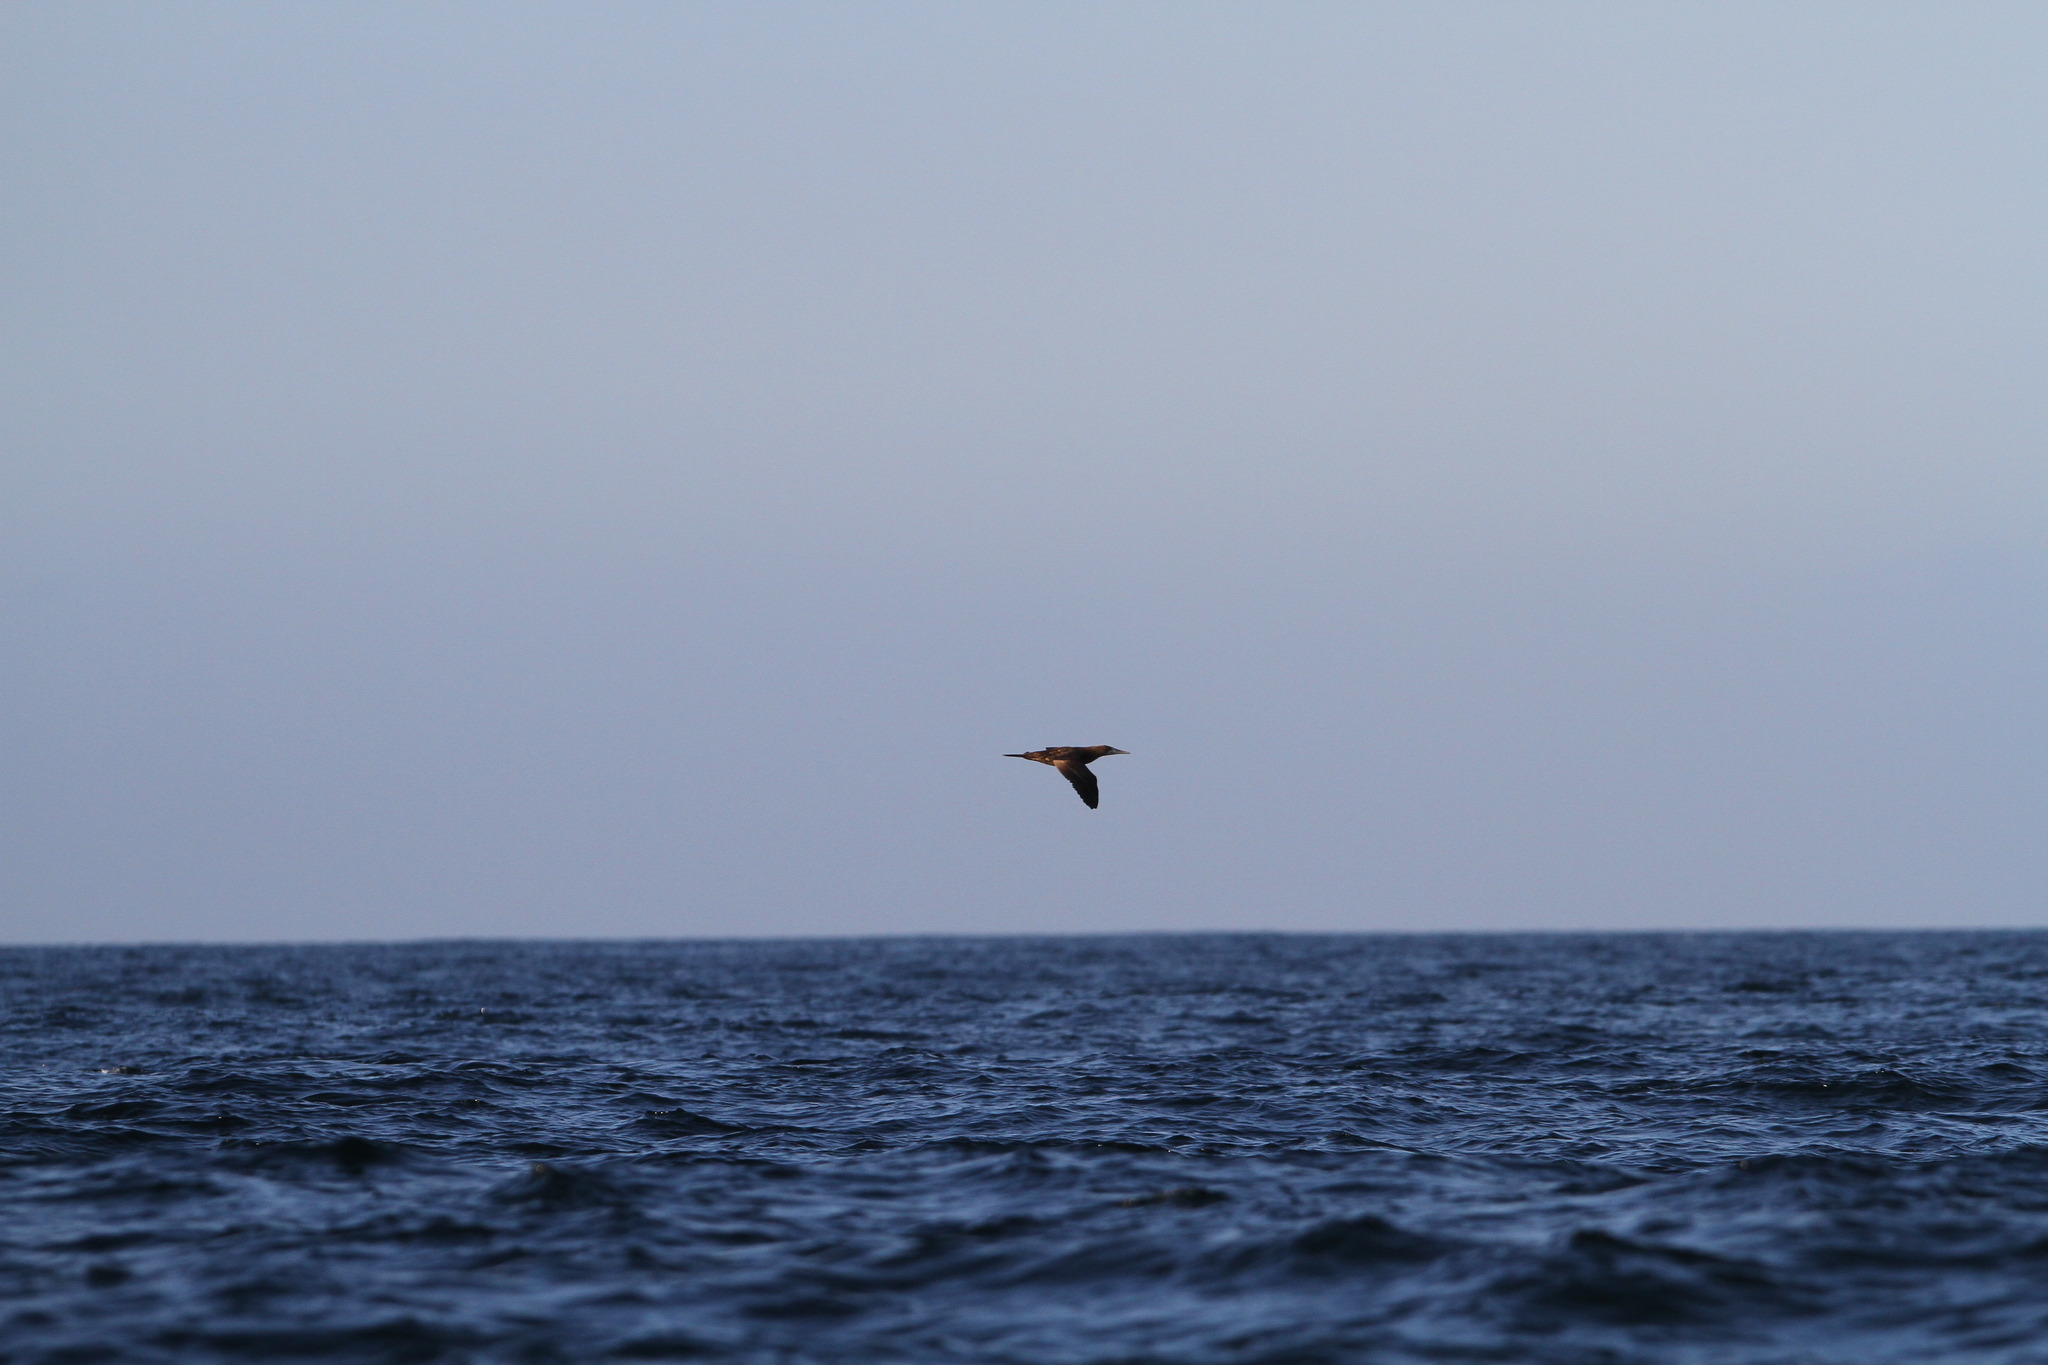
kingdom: Animalia
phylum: Chordata
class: Aves
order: Suliformes
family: Sulidae
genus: Sula
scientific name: Sula leucogaster
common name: Brown booby
